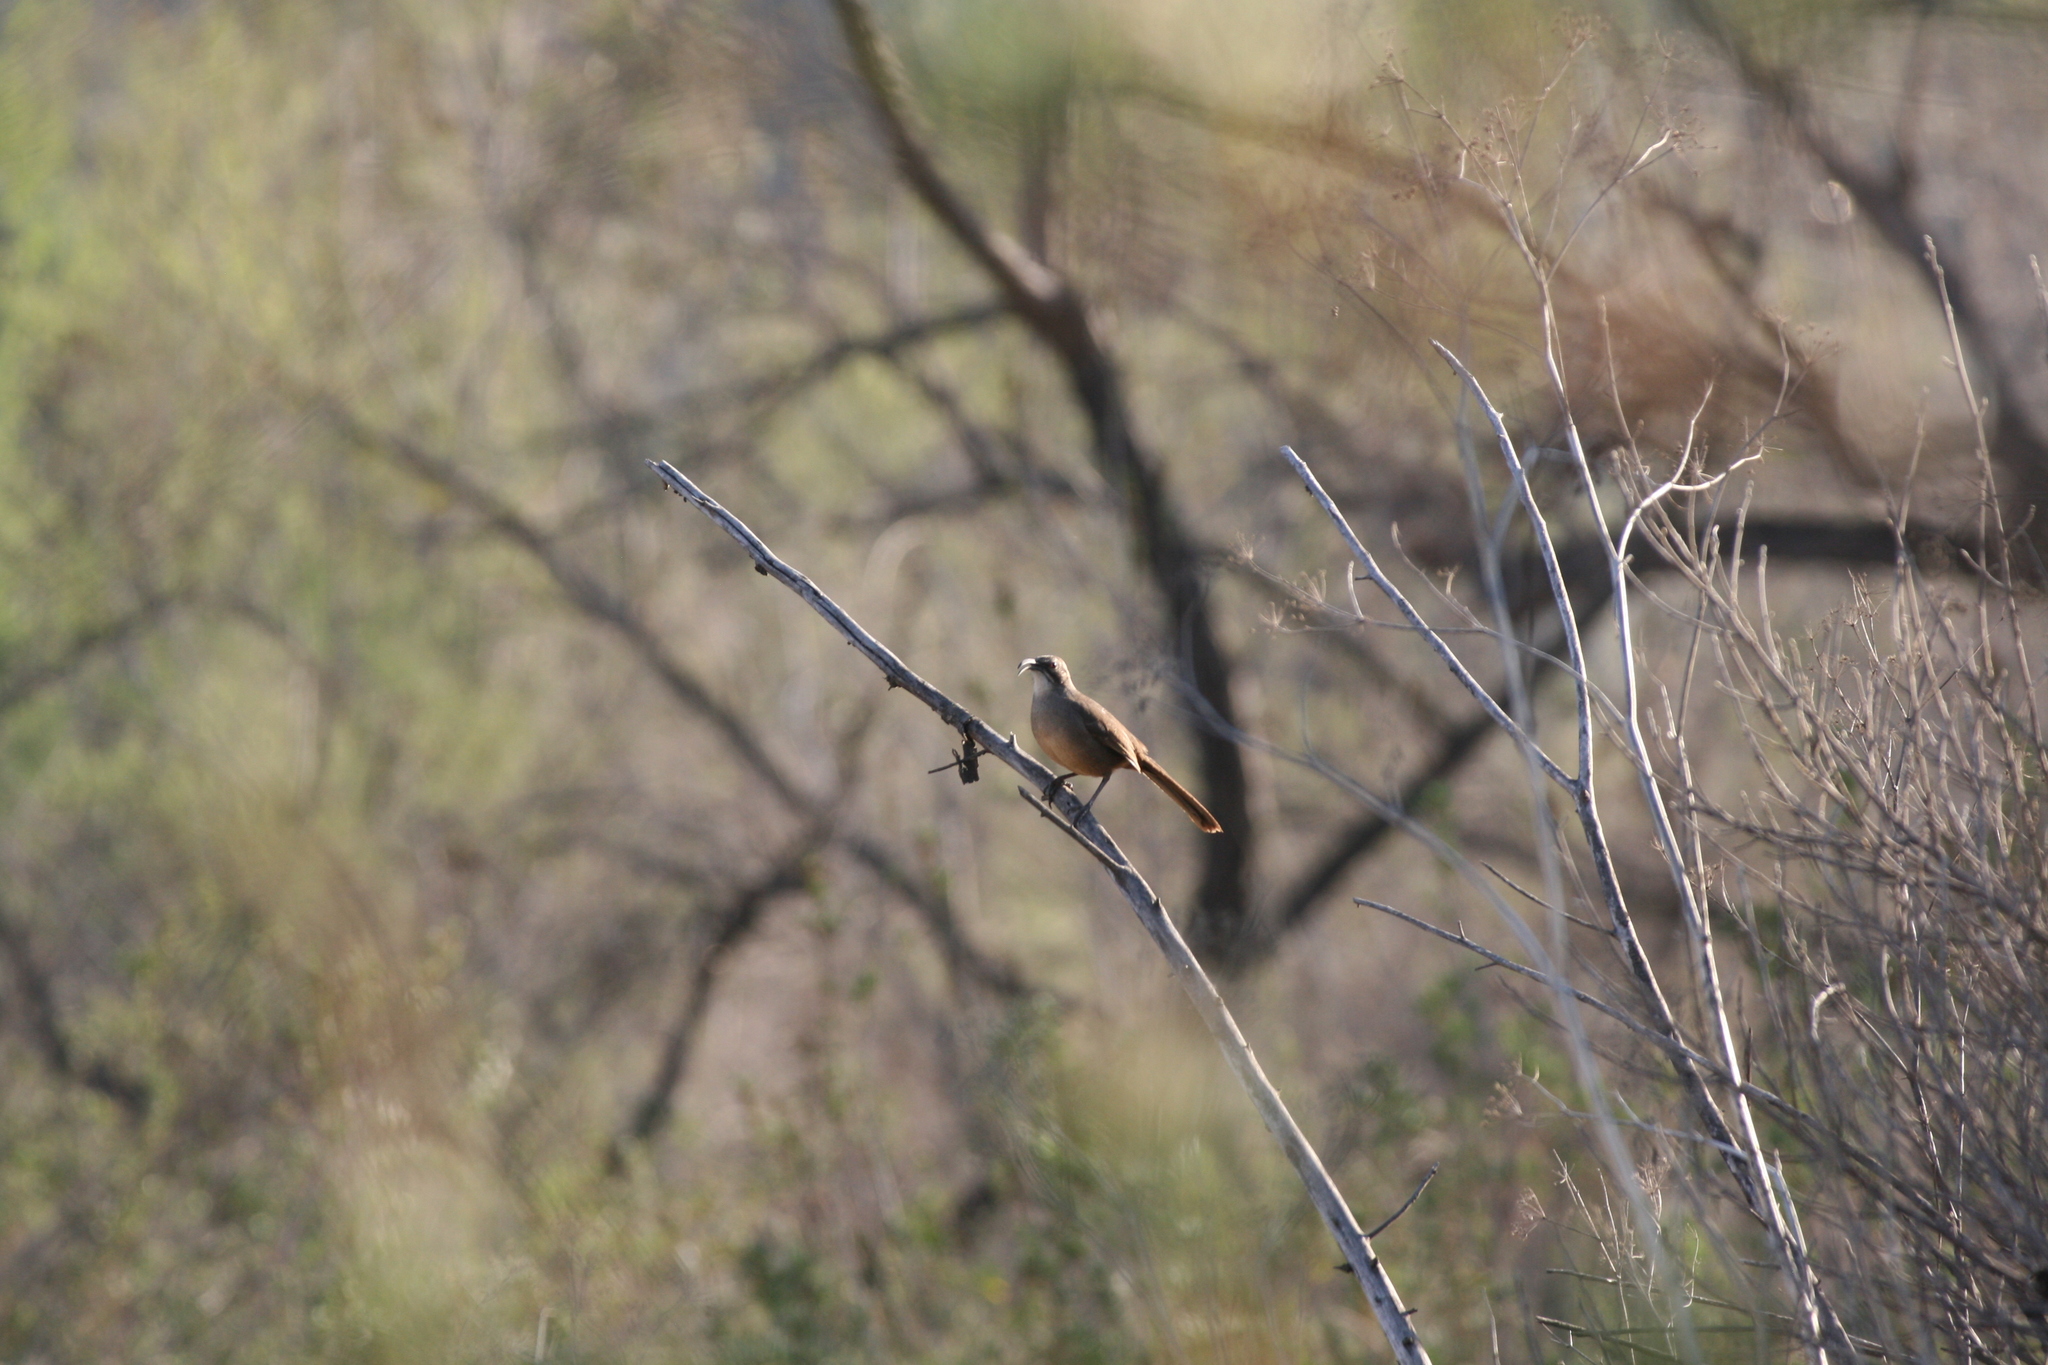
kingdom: Animalia
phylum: Chordata
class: Aves
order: Passeriformes
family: Mimidae
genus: Toxostoma
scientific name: Toxostoma redivivum
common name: California thrasher
